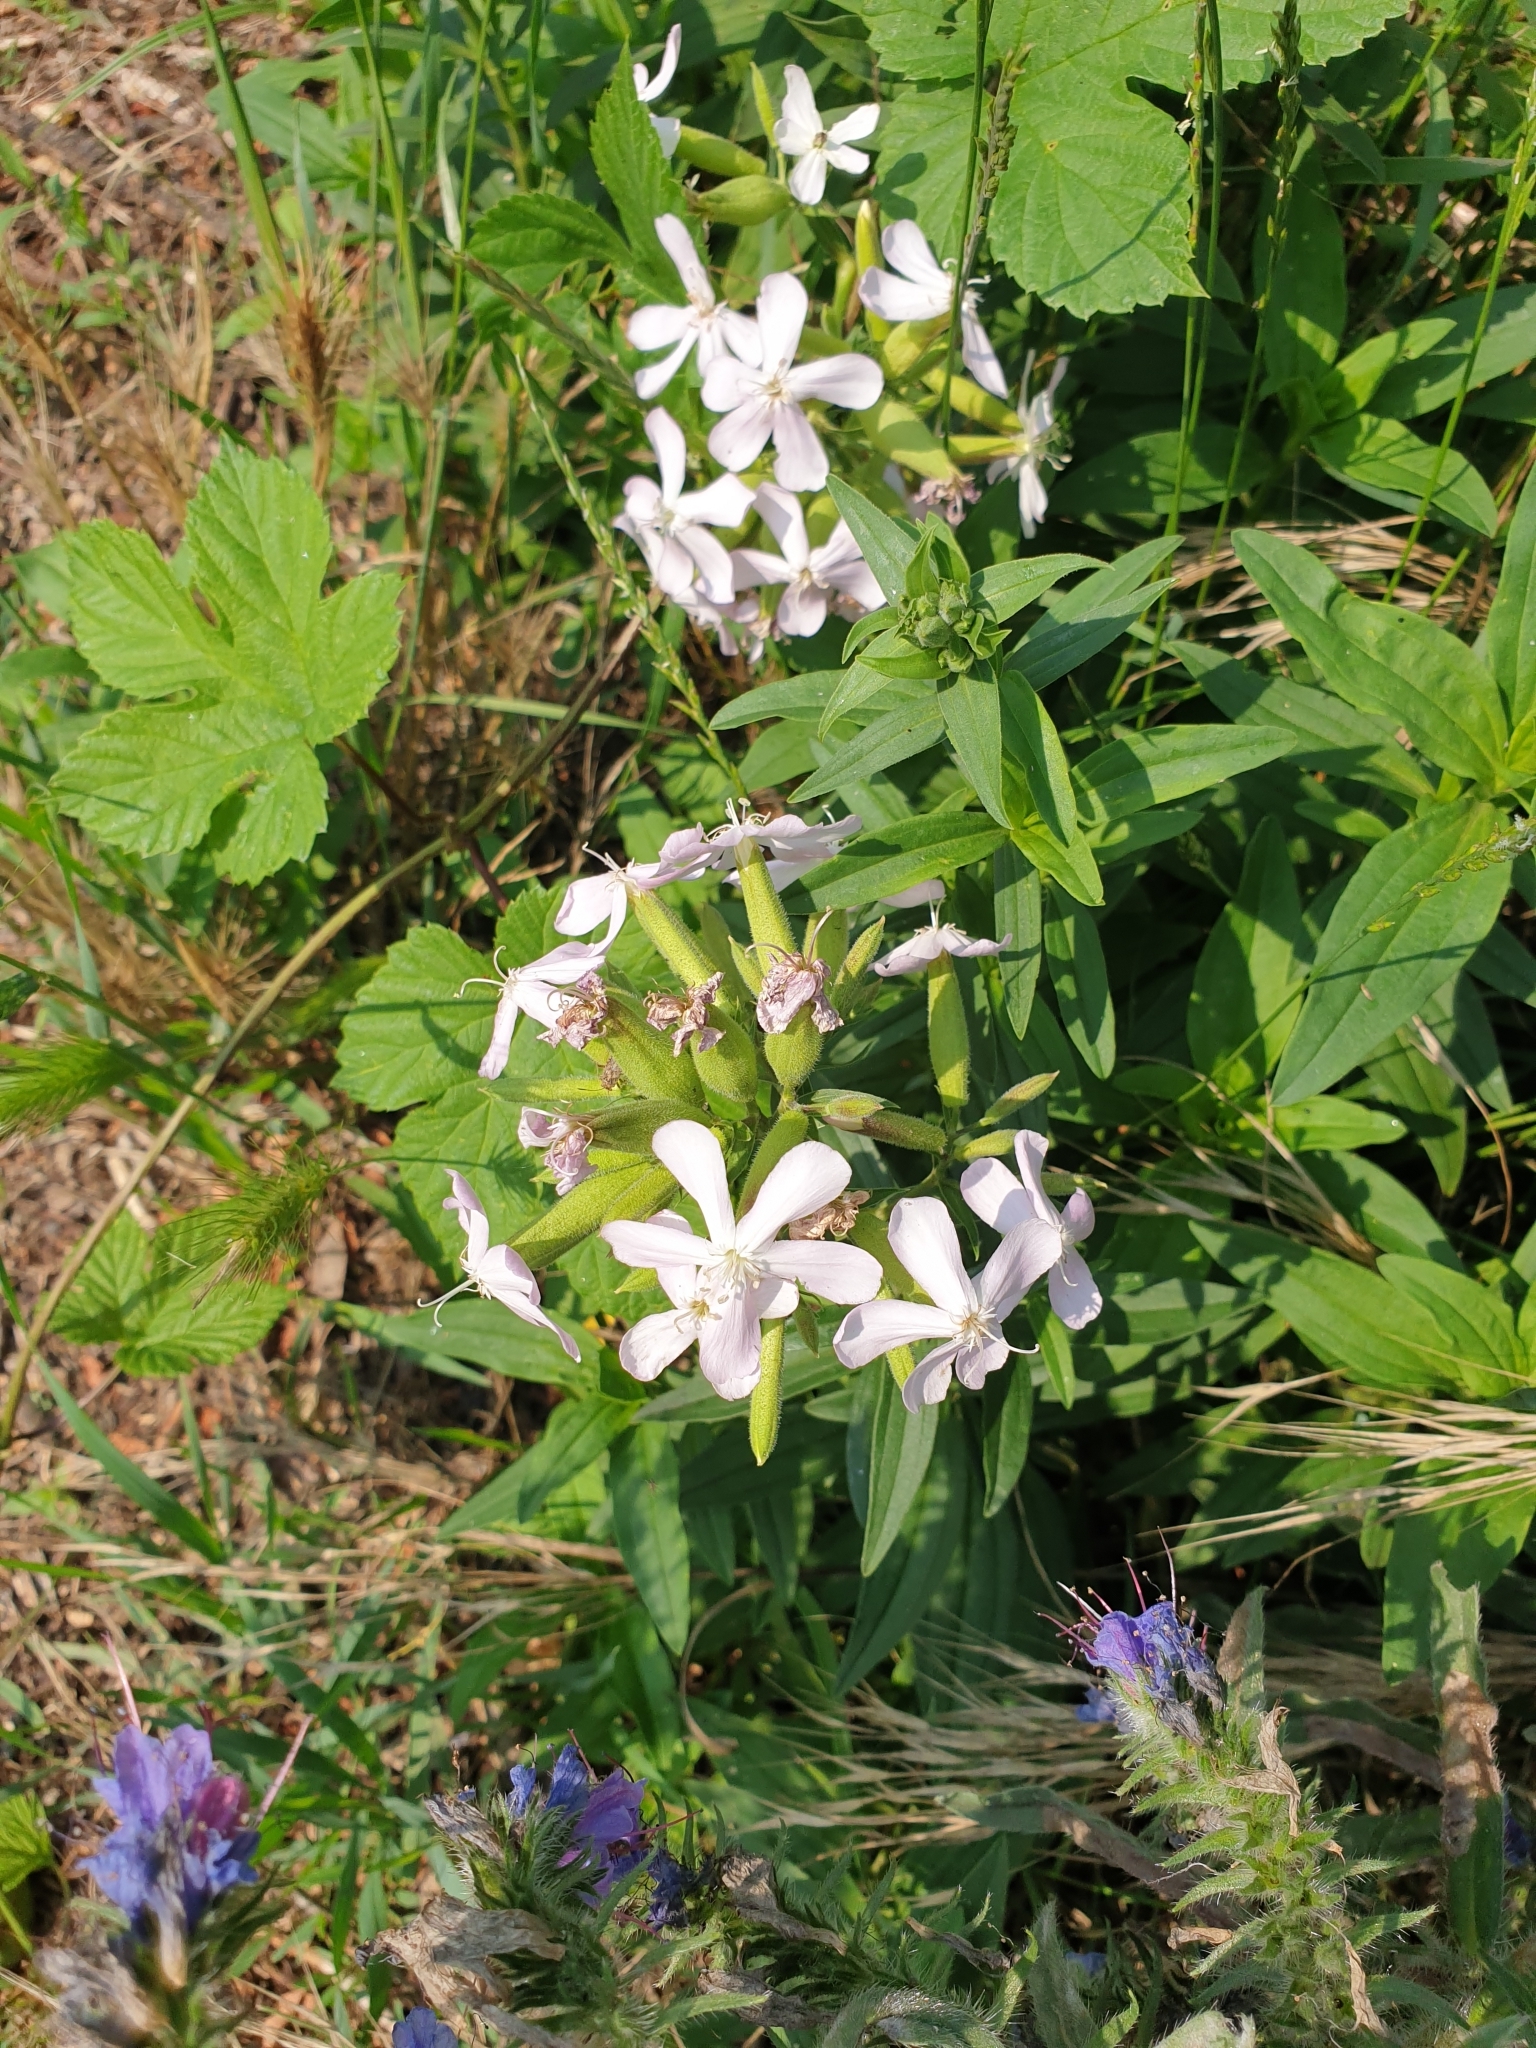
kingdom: Plantae
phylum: Tracheophyta
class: Magnoliopsida
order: Caryophyllales
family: Caryophyllaceae
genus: Saponaria
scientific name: Saponaria officinalis
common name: Soapwort
